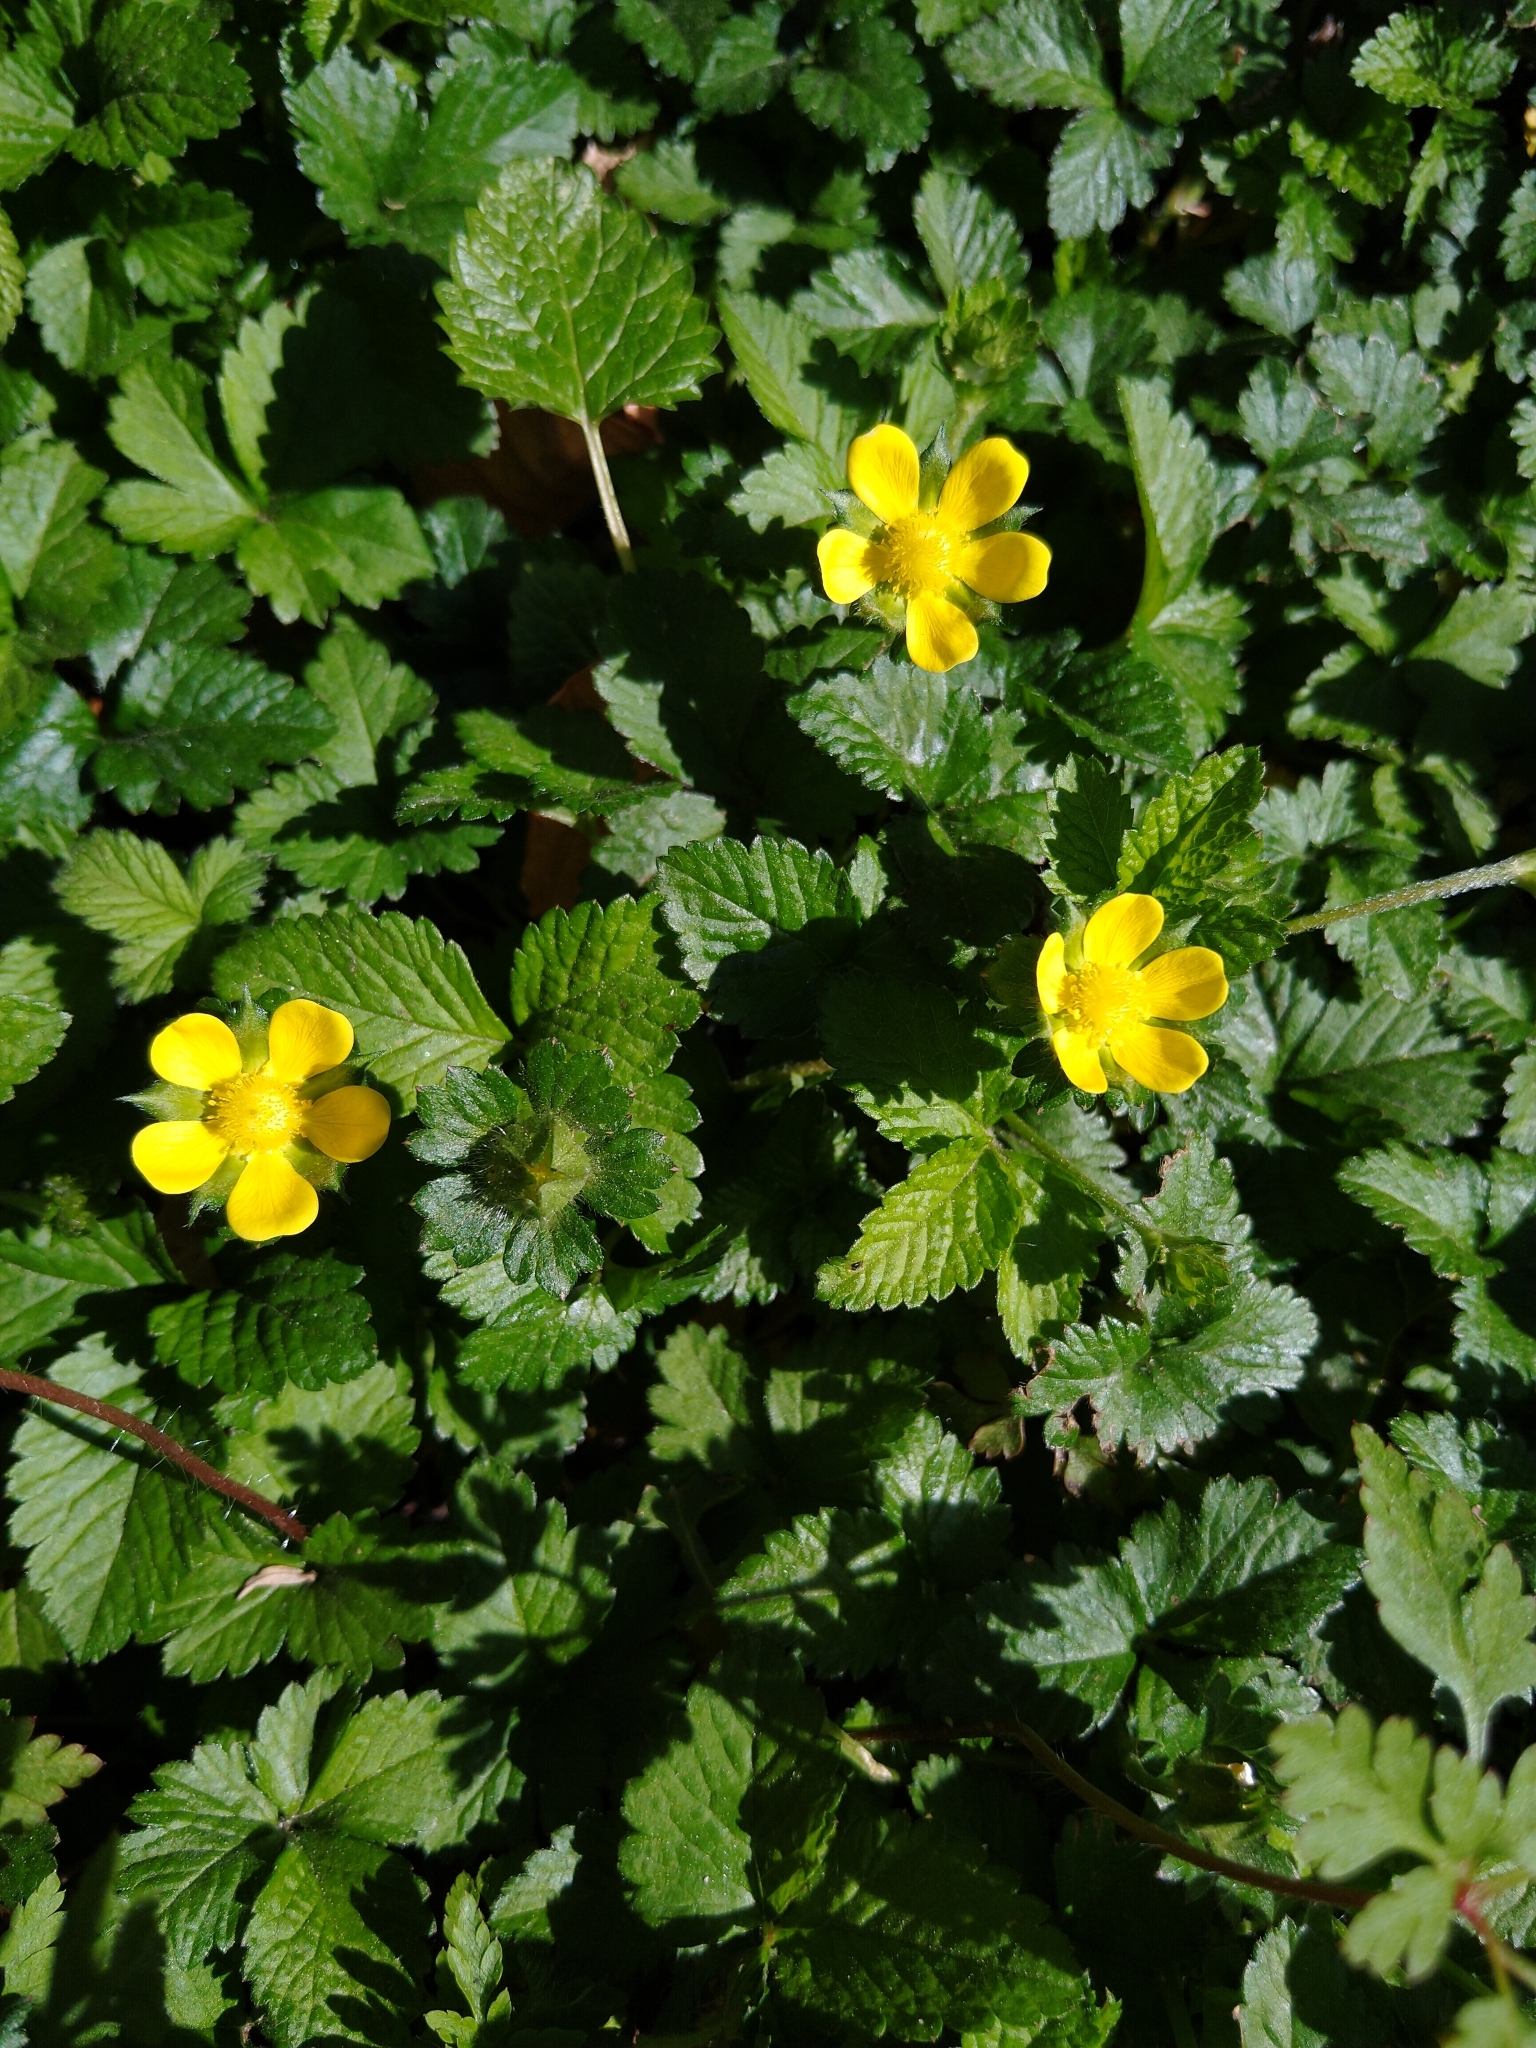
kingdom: Plantae
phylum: Tracheophyta
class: Magnoliopsida
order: Rosales
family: Rosaceae
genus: Potentilla
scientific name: Potentilla indica
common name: Yellow-flowered strawberry
